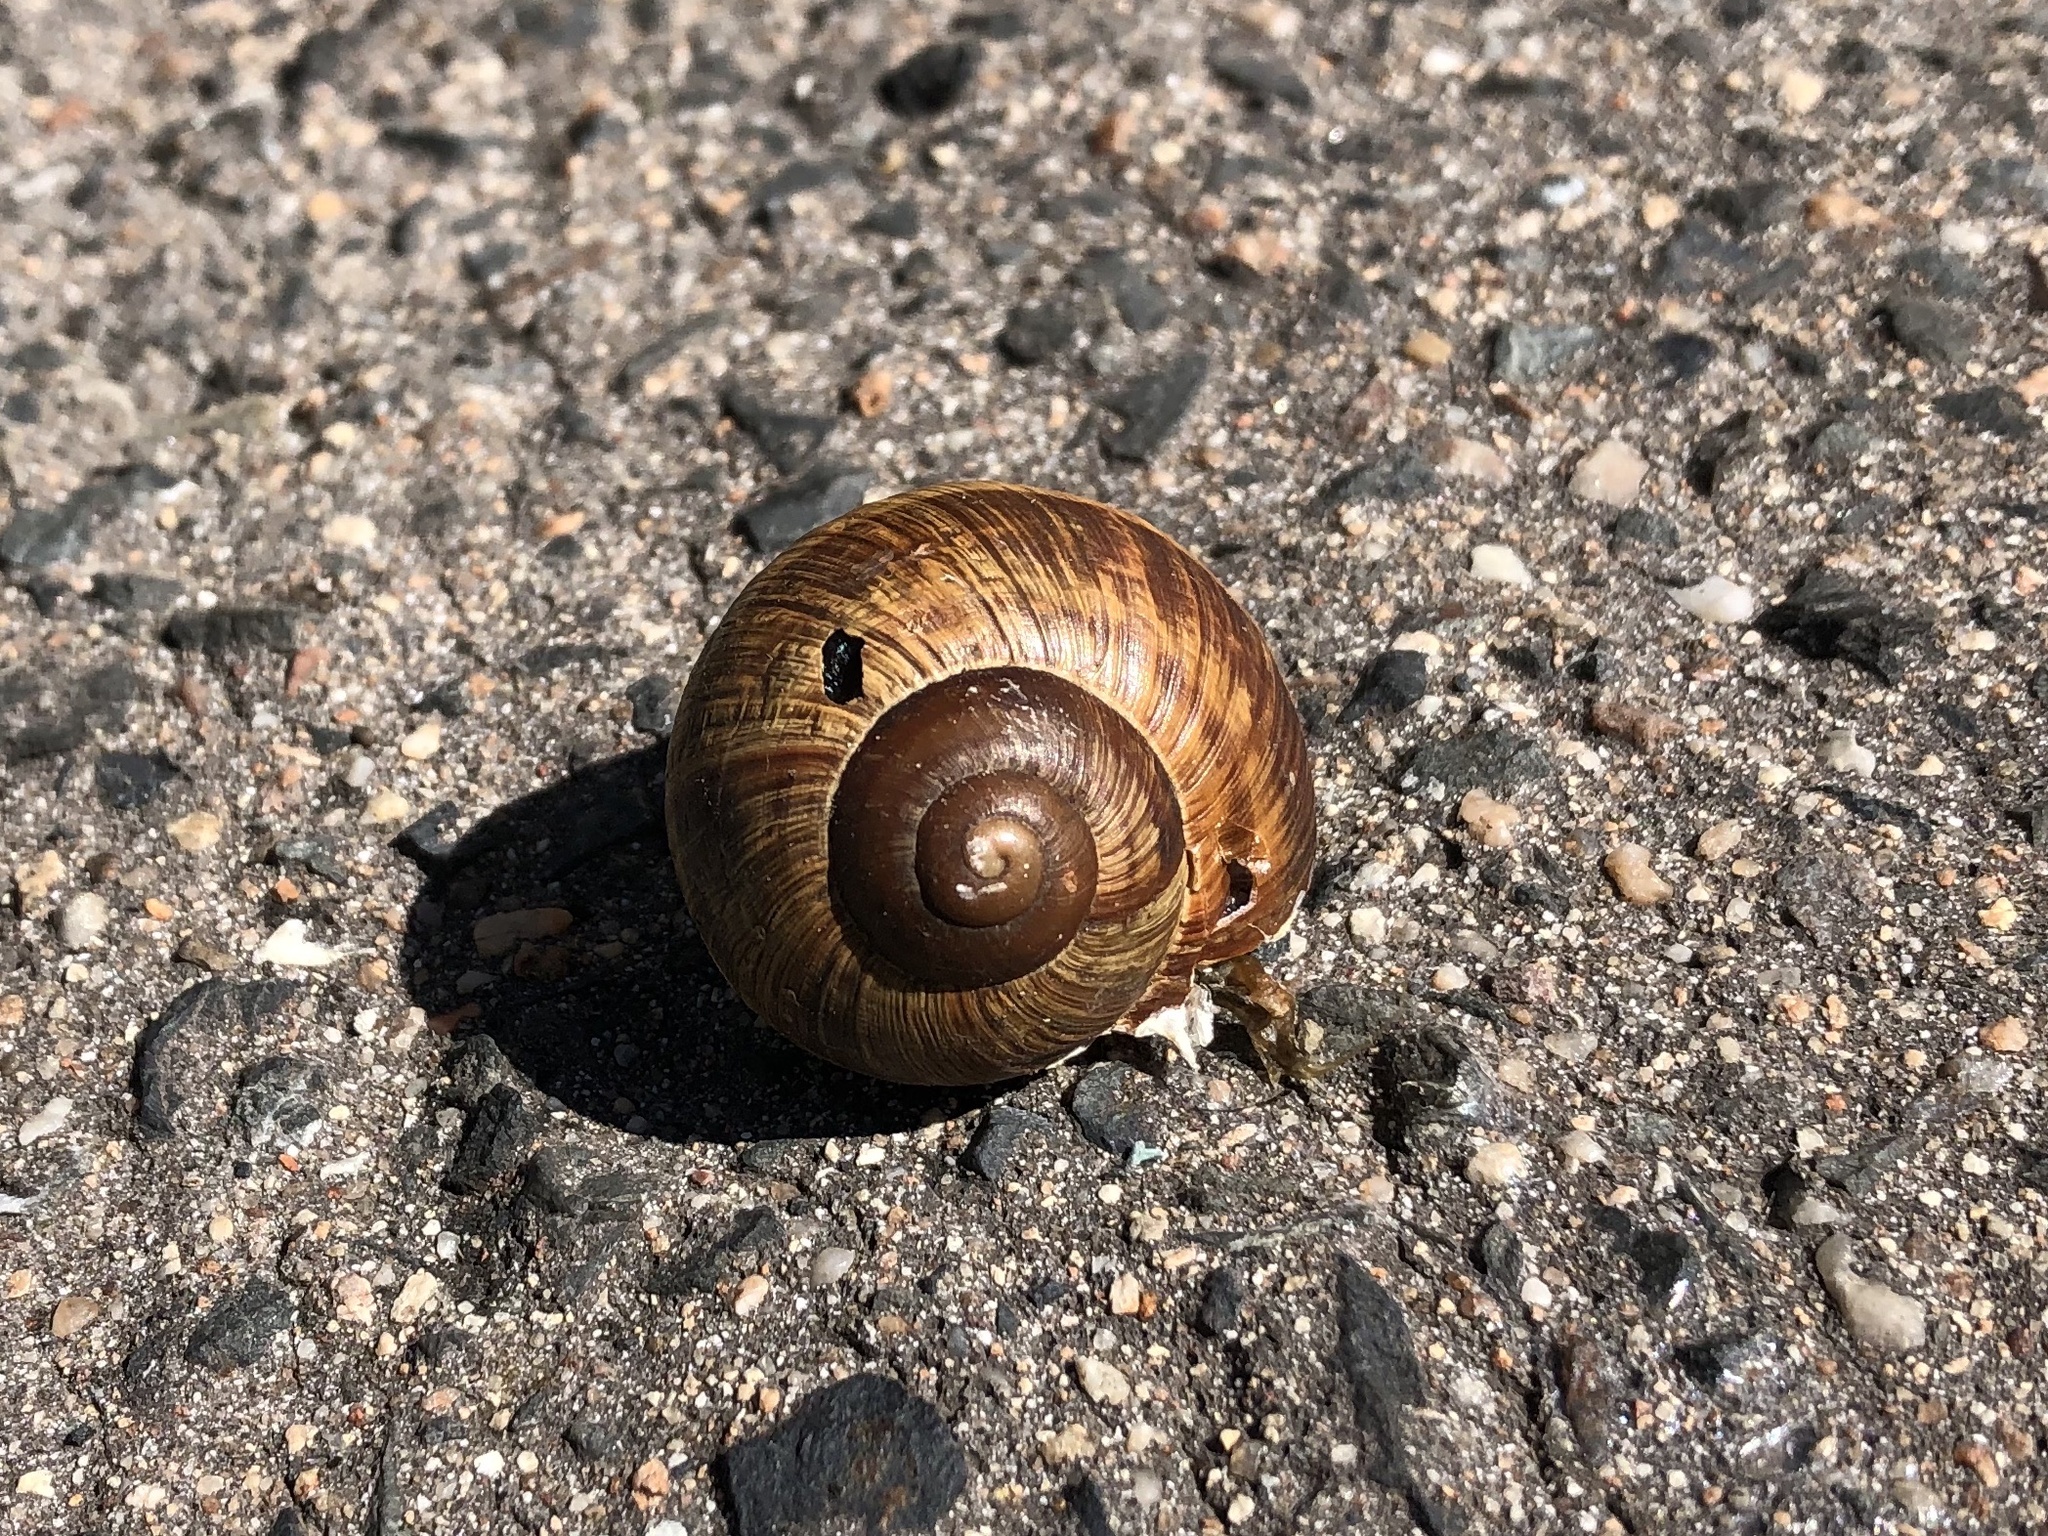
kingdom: Animalia
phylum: Mollusca
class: Gastropoda
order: Stylommatophora
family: Helicidae
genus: Helix
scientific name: Helix pomatia
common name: Roman snail
